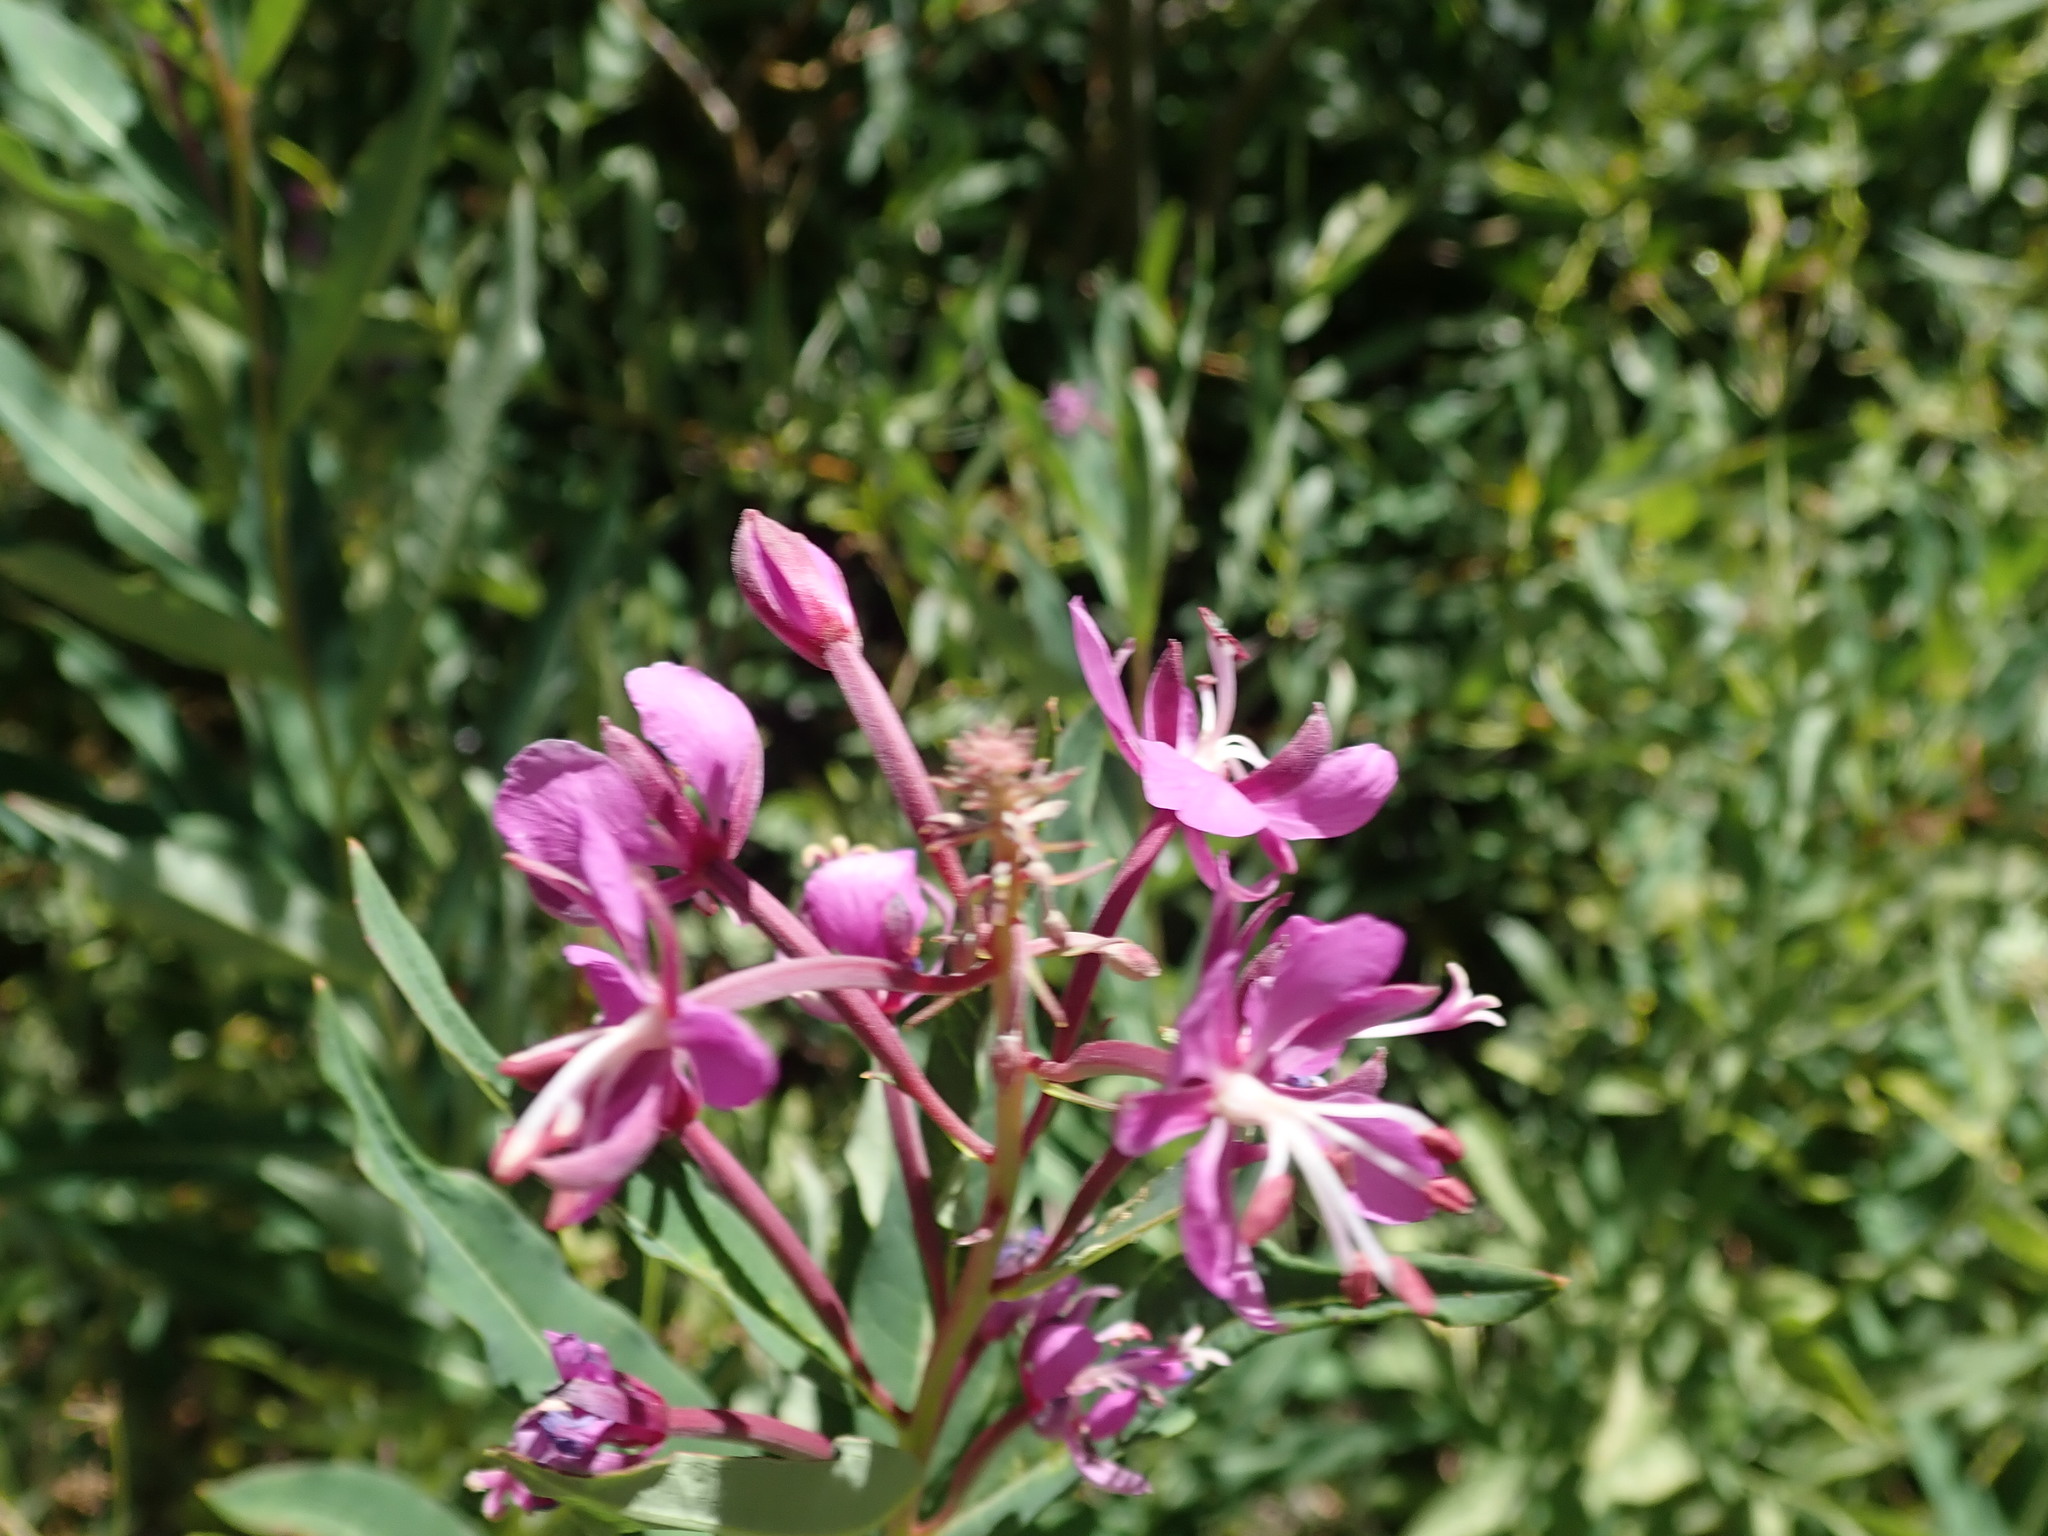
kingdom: Plantae
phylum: Tracheophyta
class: Magnoliopsida
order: Myrtales
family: Onagraceae
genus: Chamaenerion
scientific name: Chamaenerion angustifolium
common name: Fireweed
